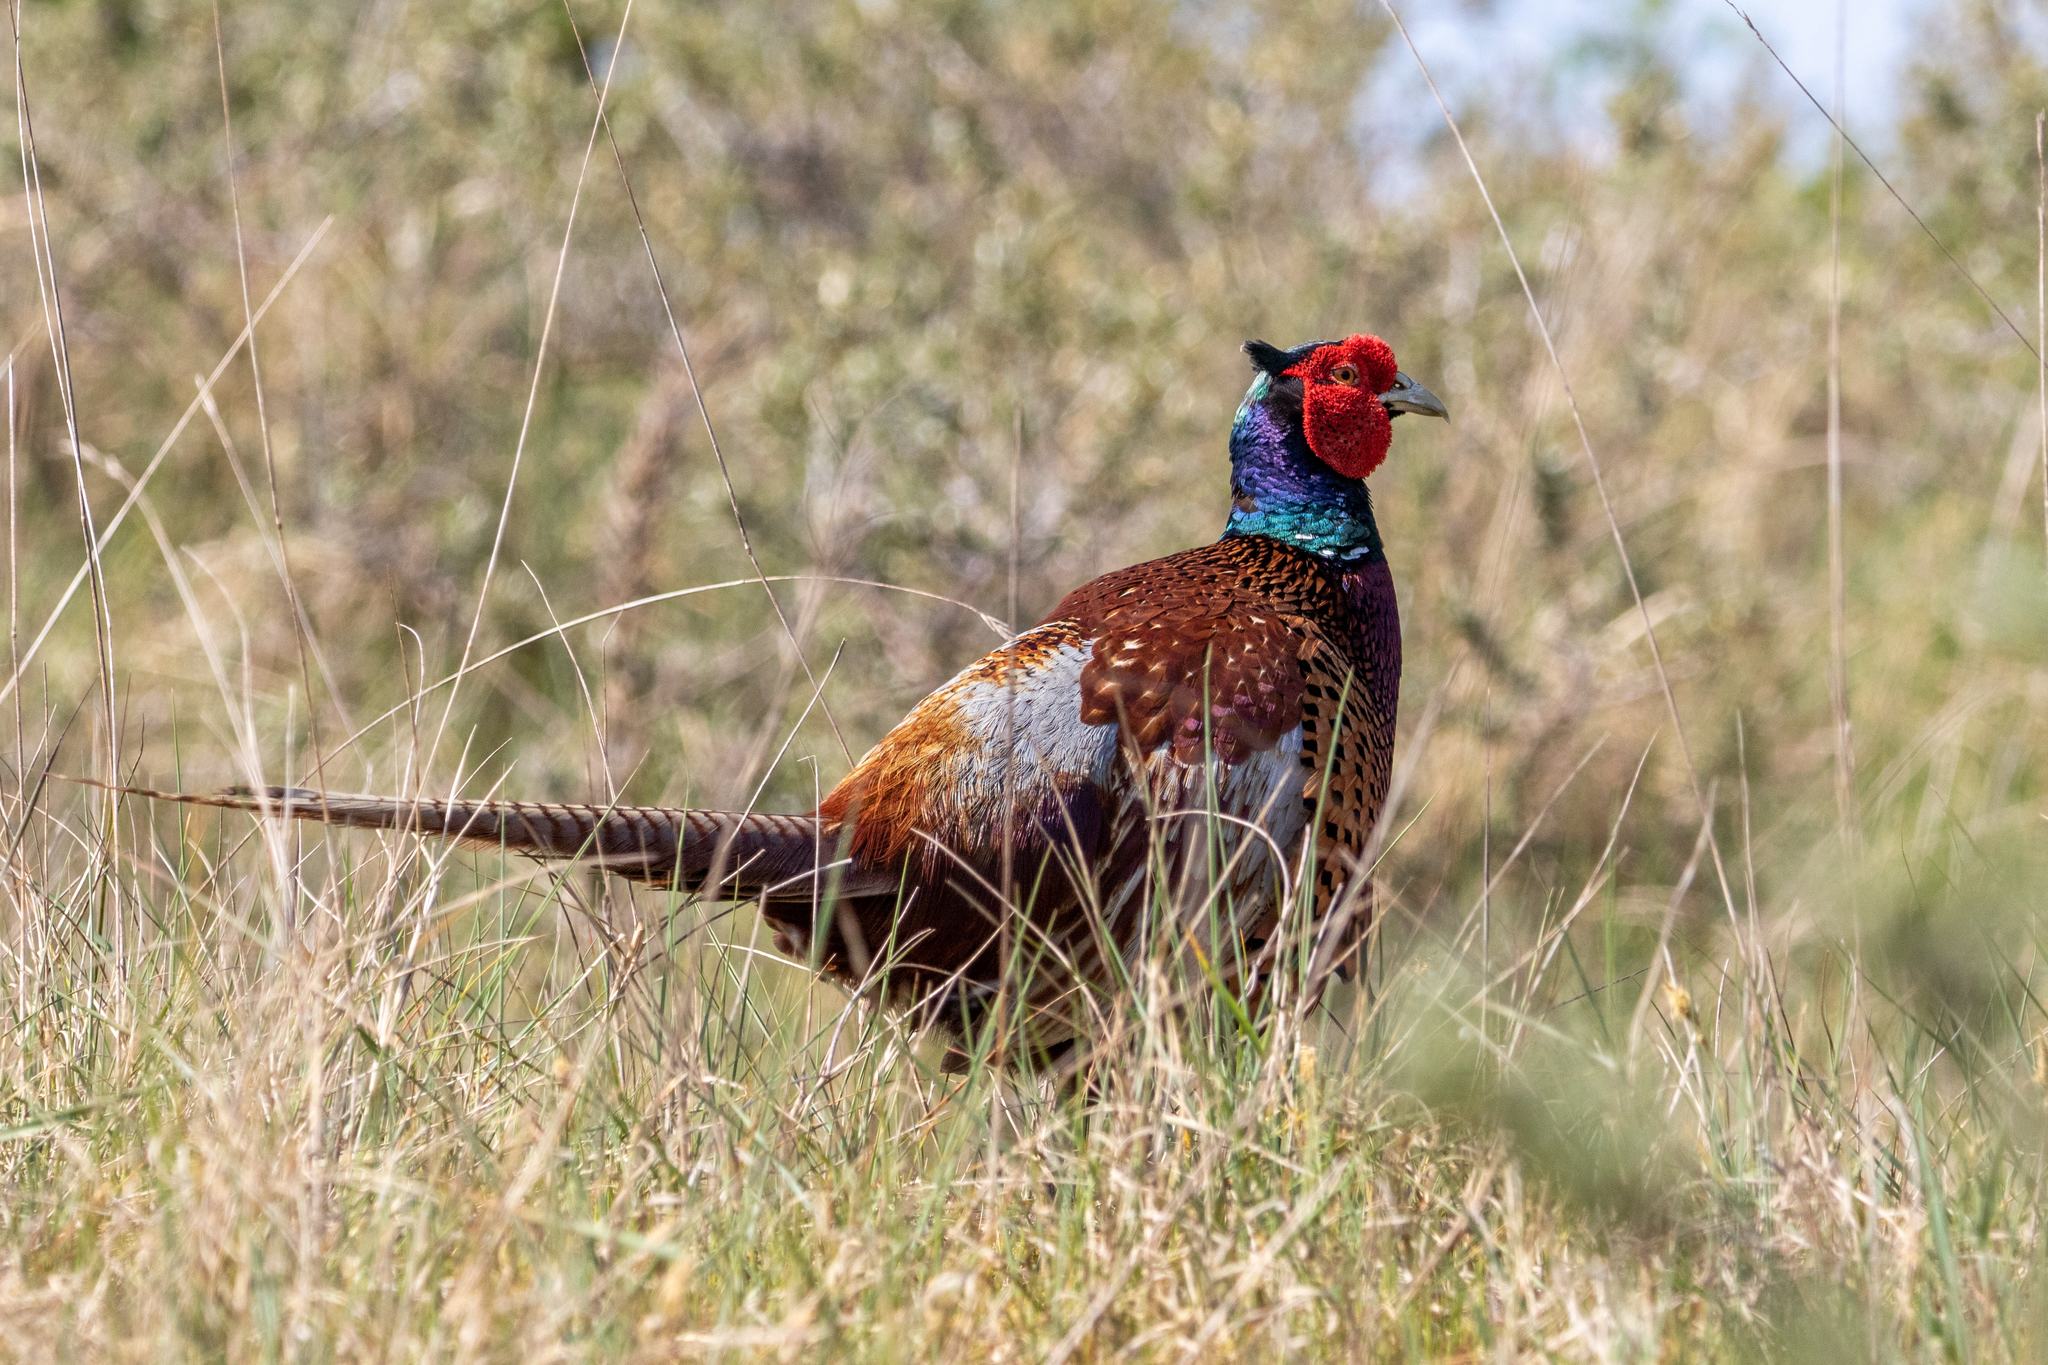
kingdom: Animalia
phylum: Chordata
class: Aves
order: Galliformes
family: Phasianidae
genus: Phasianus
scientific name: Phasianus colchicus
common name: Common pheasant
